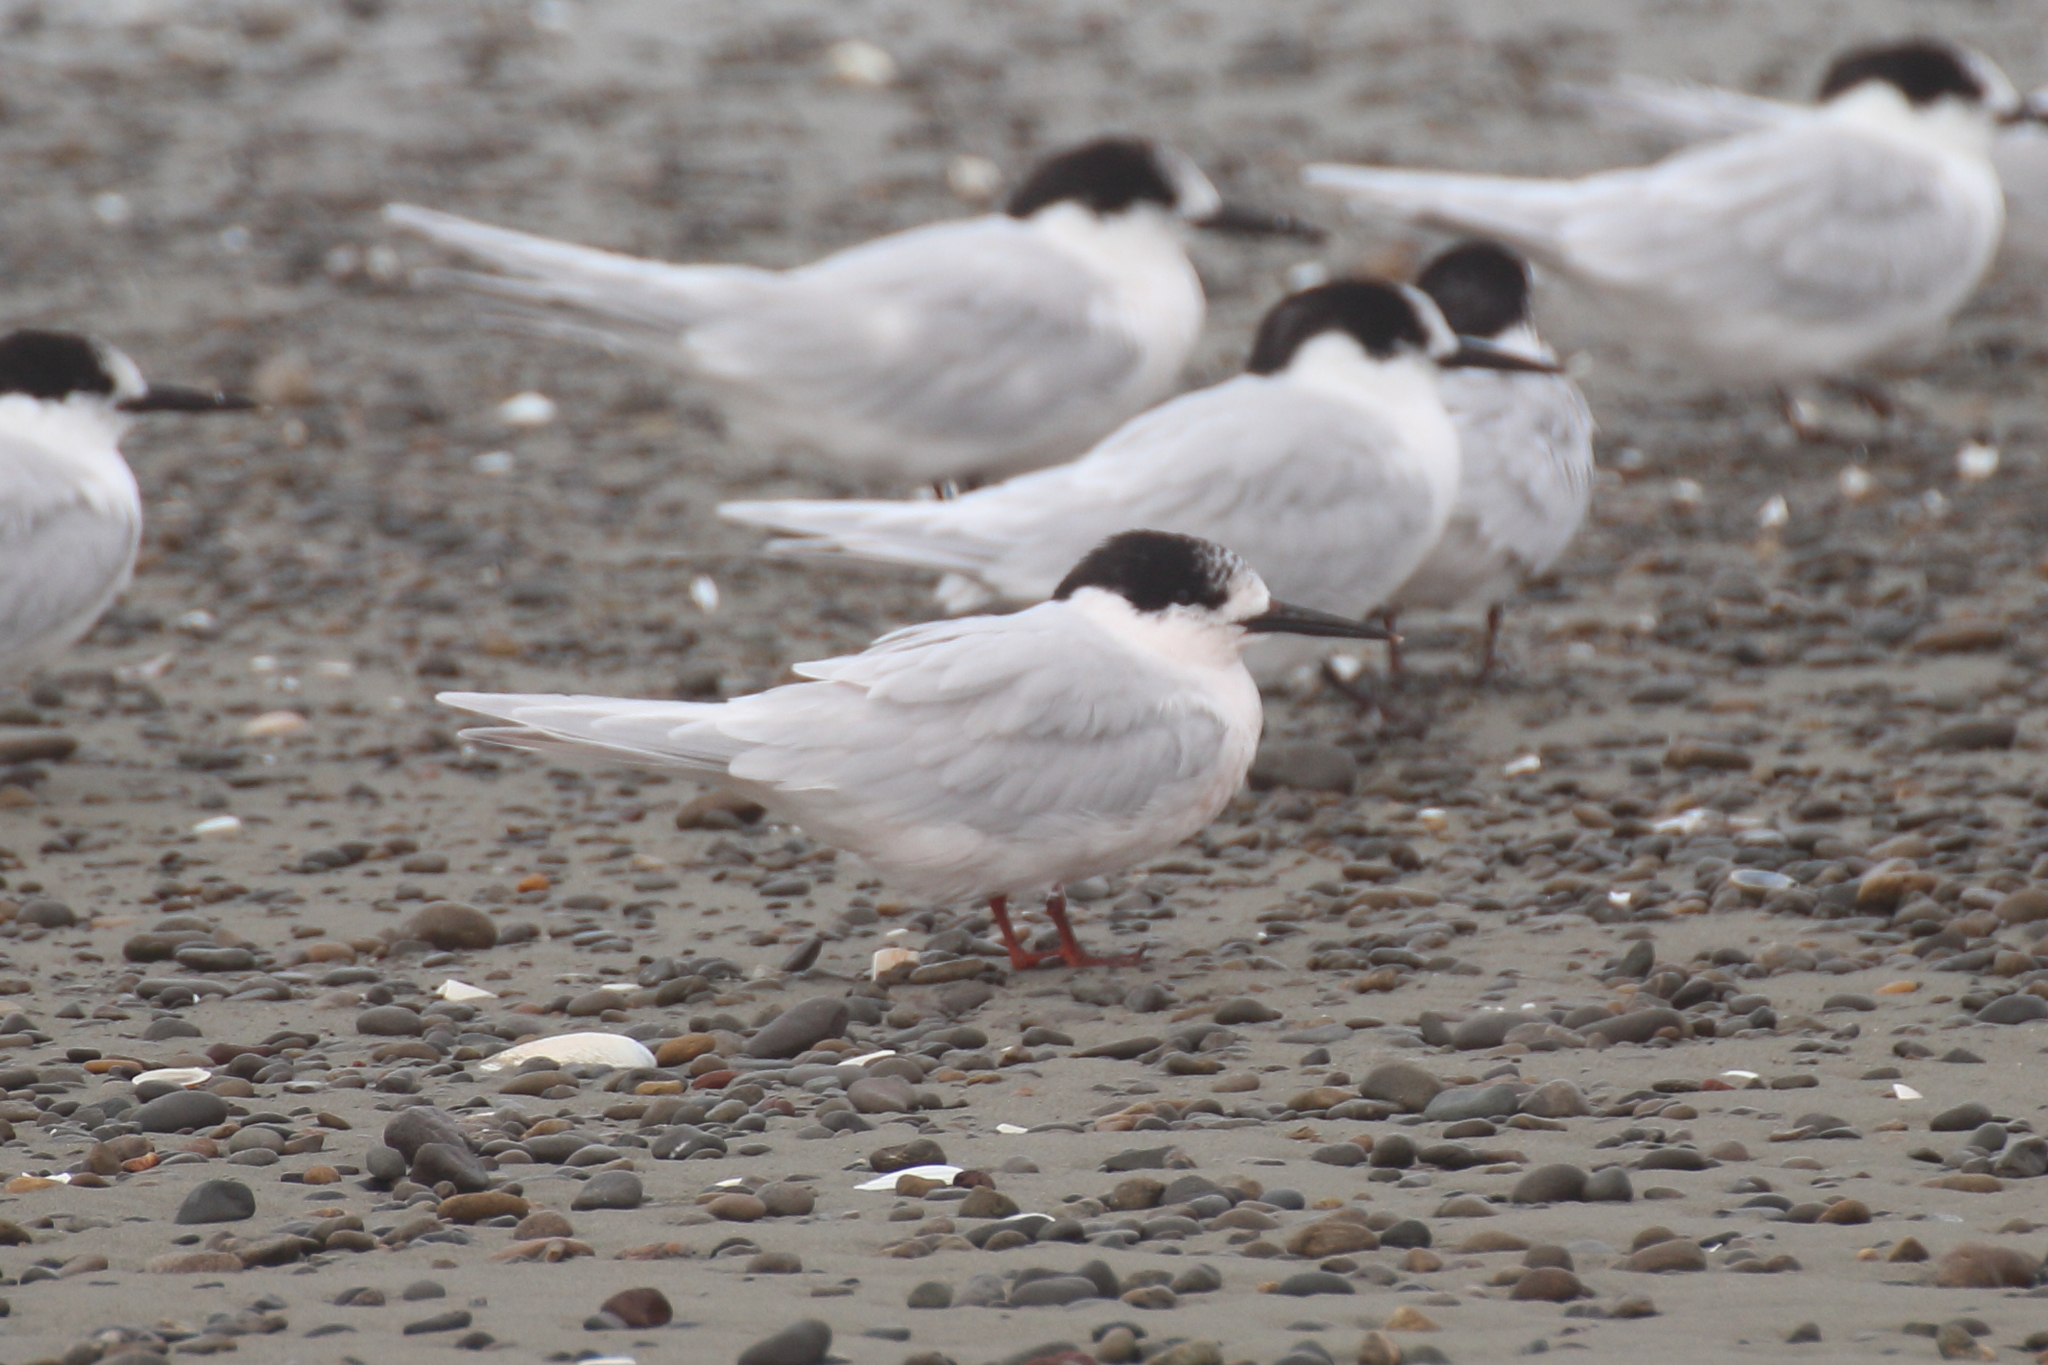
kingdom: Animalia
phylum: Chordata
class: Aves
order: Charadriiformes
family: Laridae
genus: Sterna
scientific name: Sterna striata
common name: White-fronted tern
